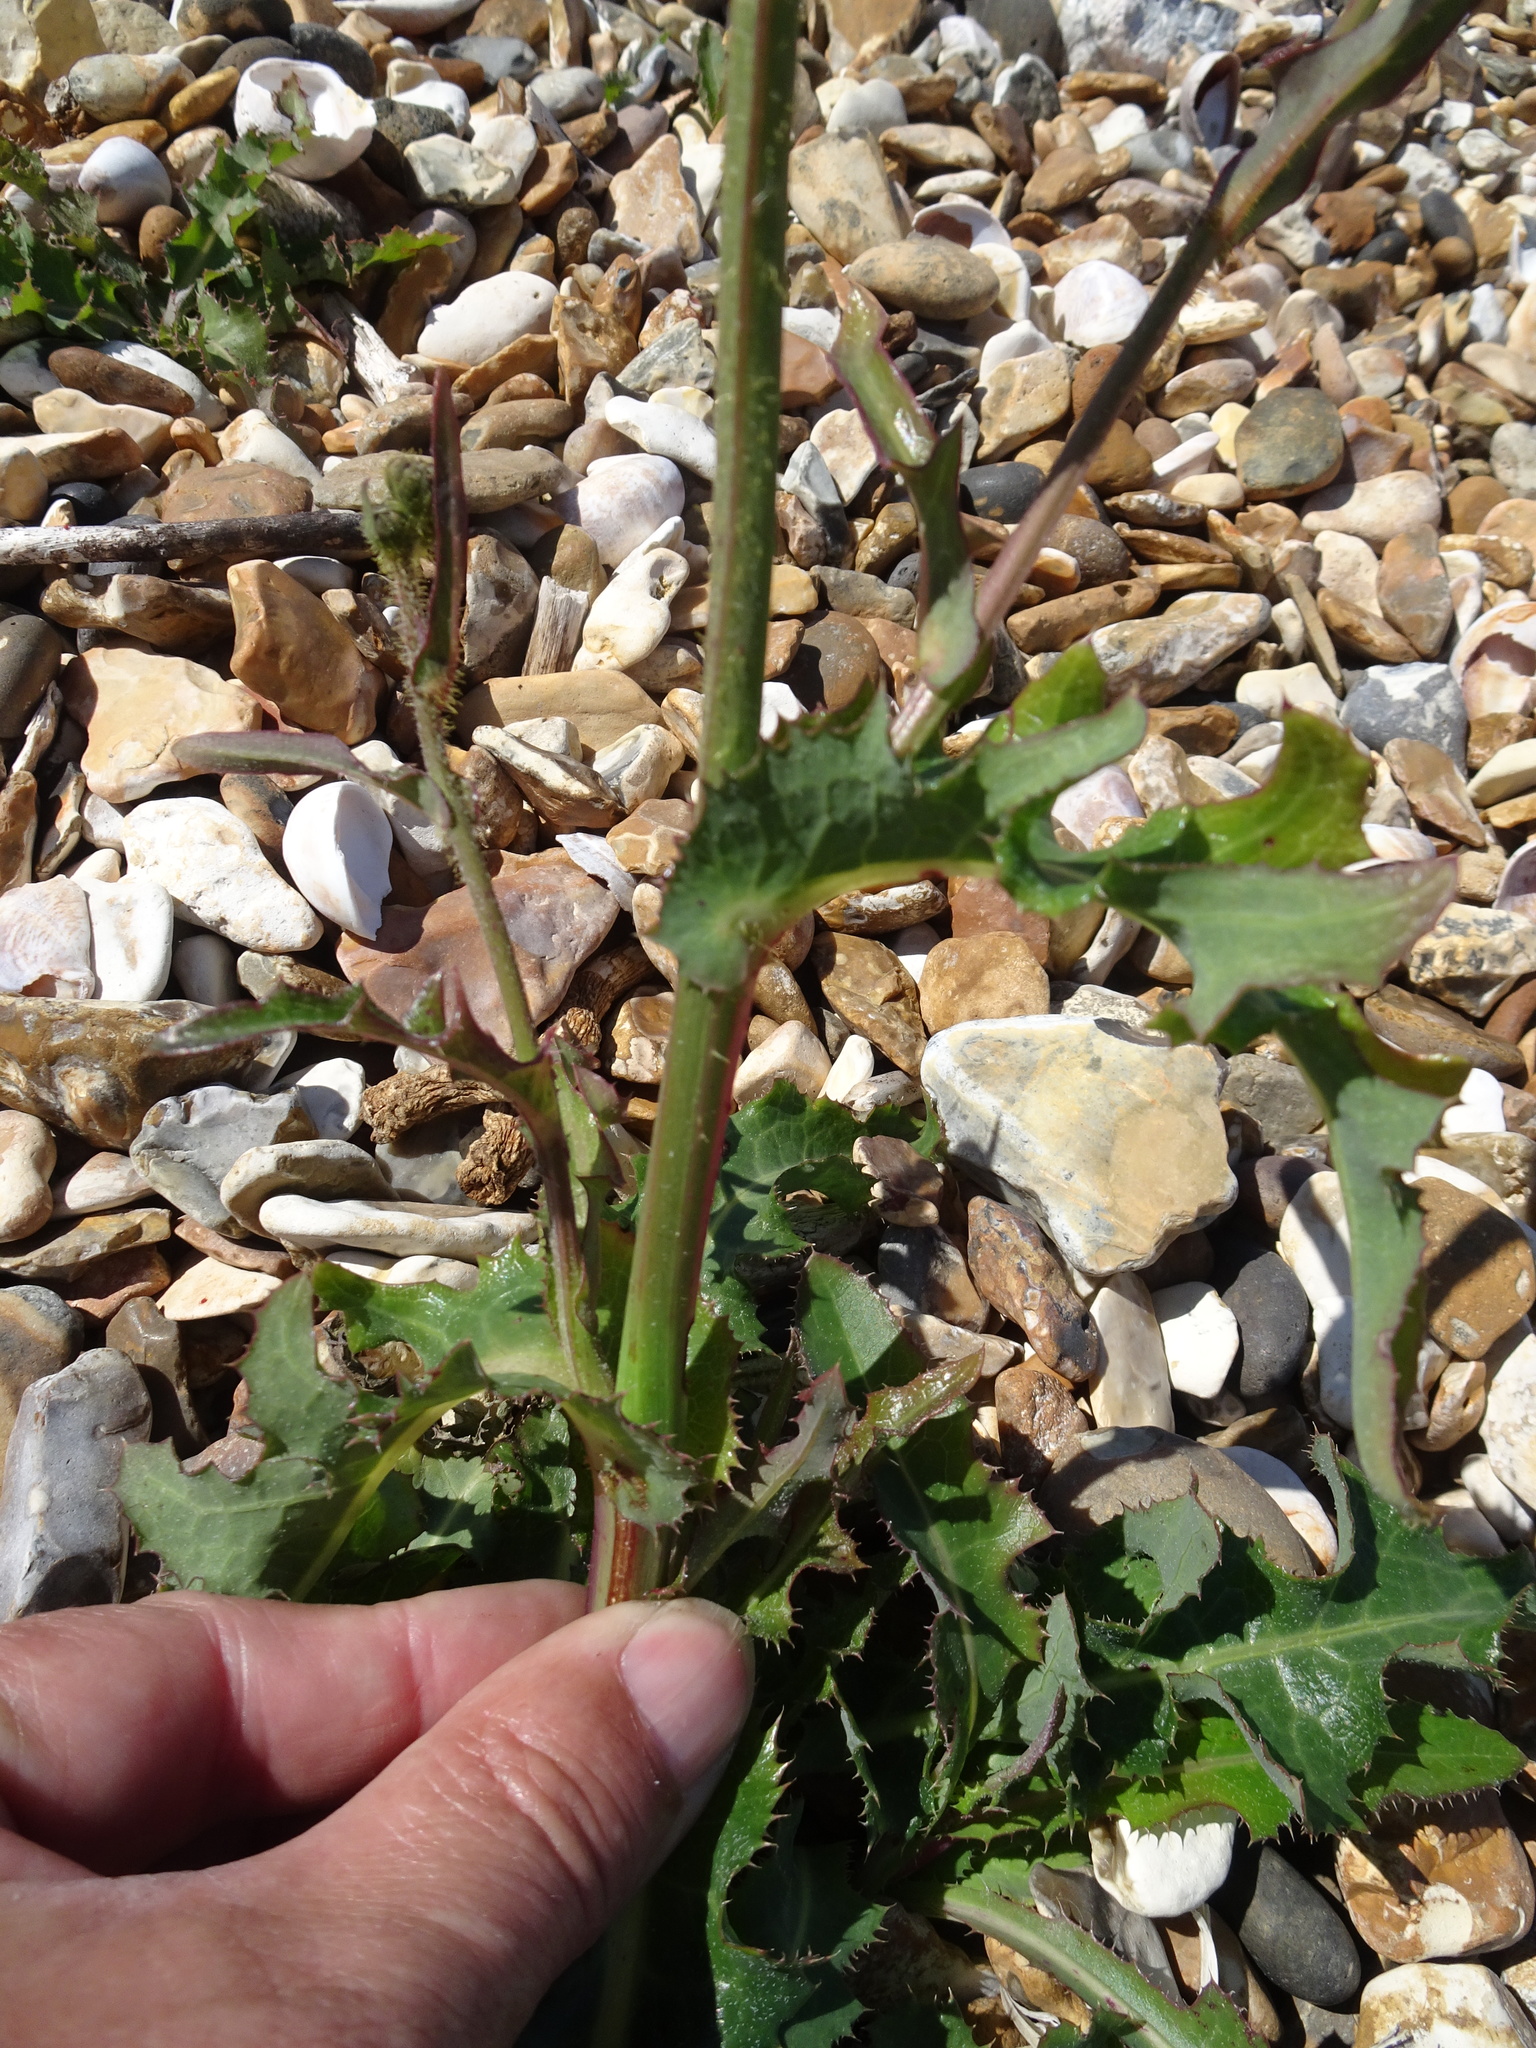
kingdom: Plantae
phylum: Tracheophyta
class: Magnoliopsida
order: Asterales
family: Asteraceae
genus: Sonchus
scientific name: Sonchus arvensis
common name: Perennial sow-thistle
